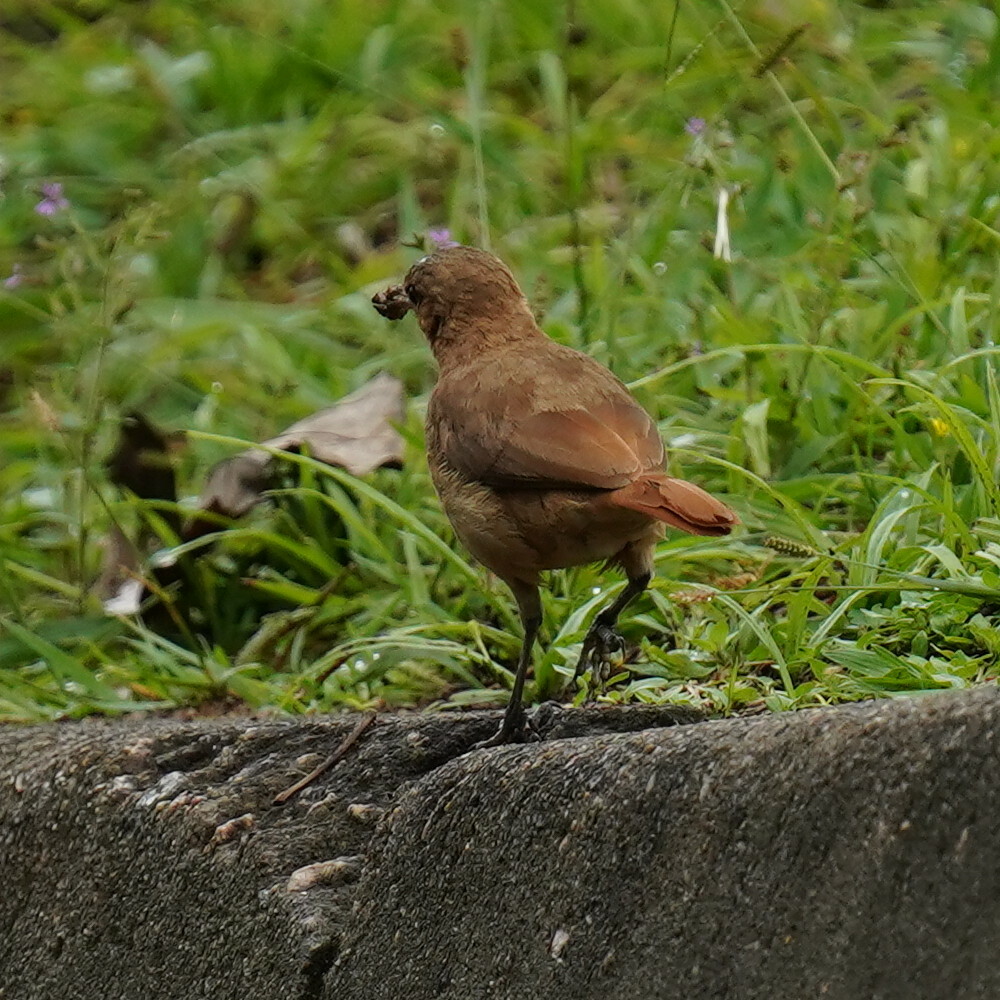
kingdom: Animalia
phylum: Chordata
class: Aves
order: Passeriformes
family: Furnariidae
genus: Furnarius
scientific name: Furnarius rufus
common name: Rufous hornero
